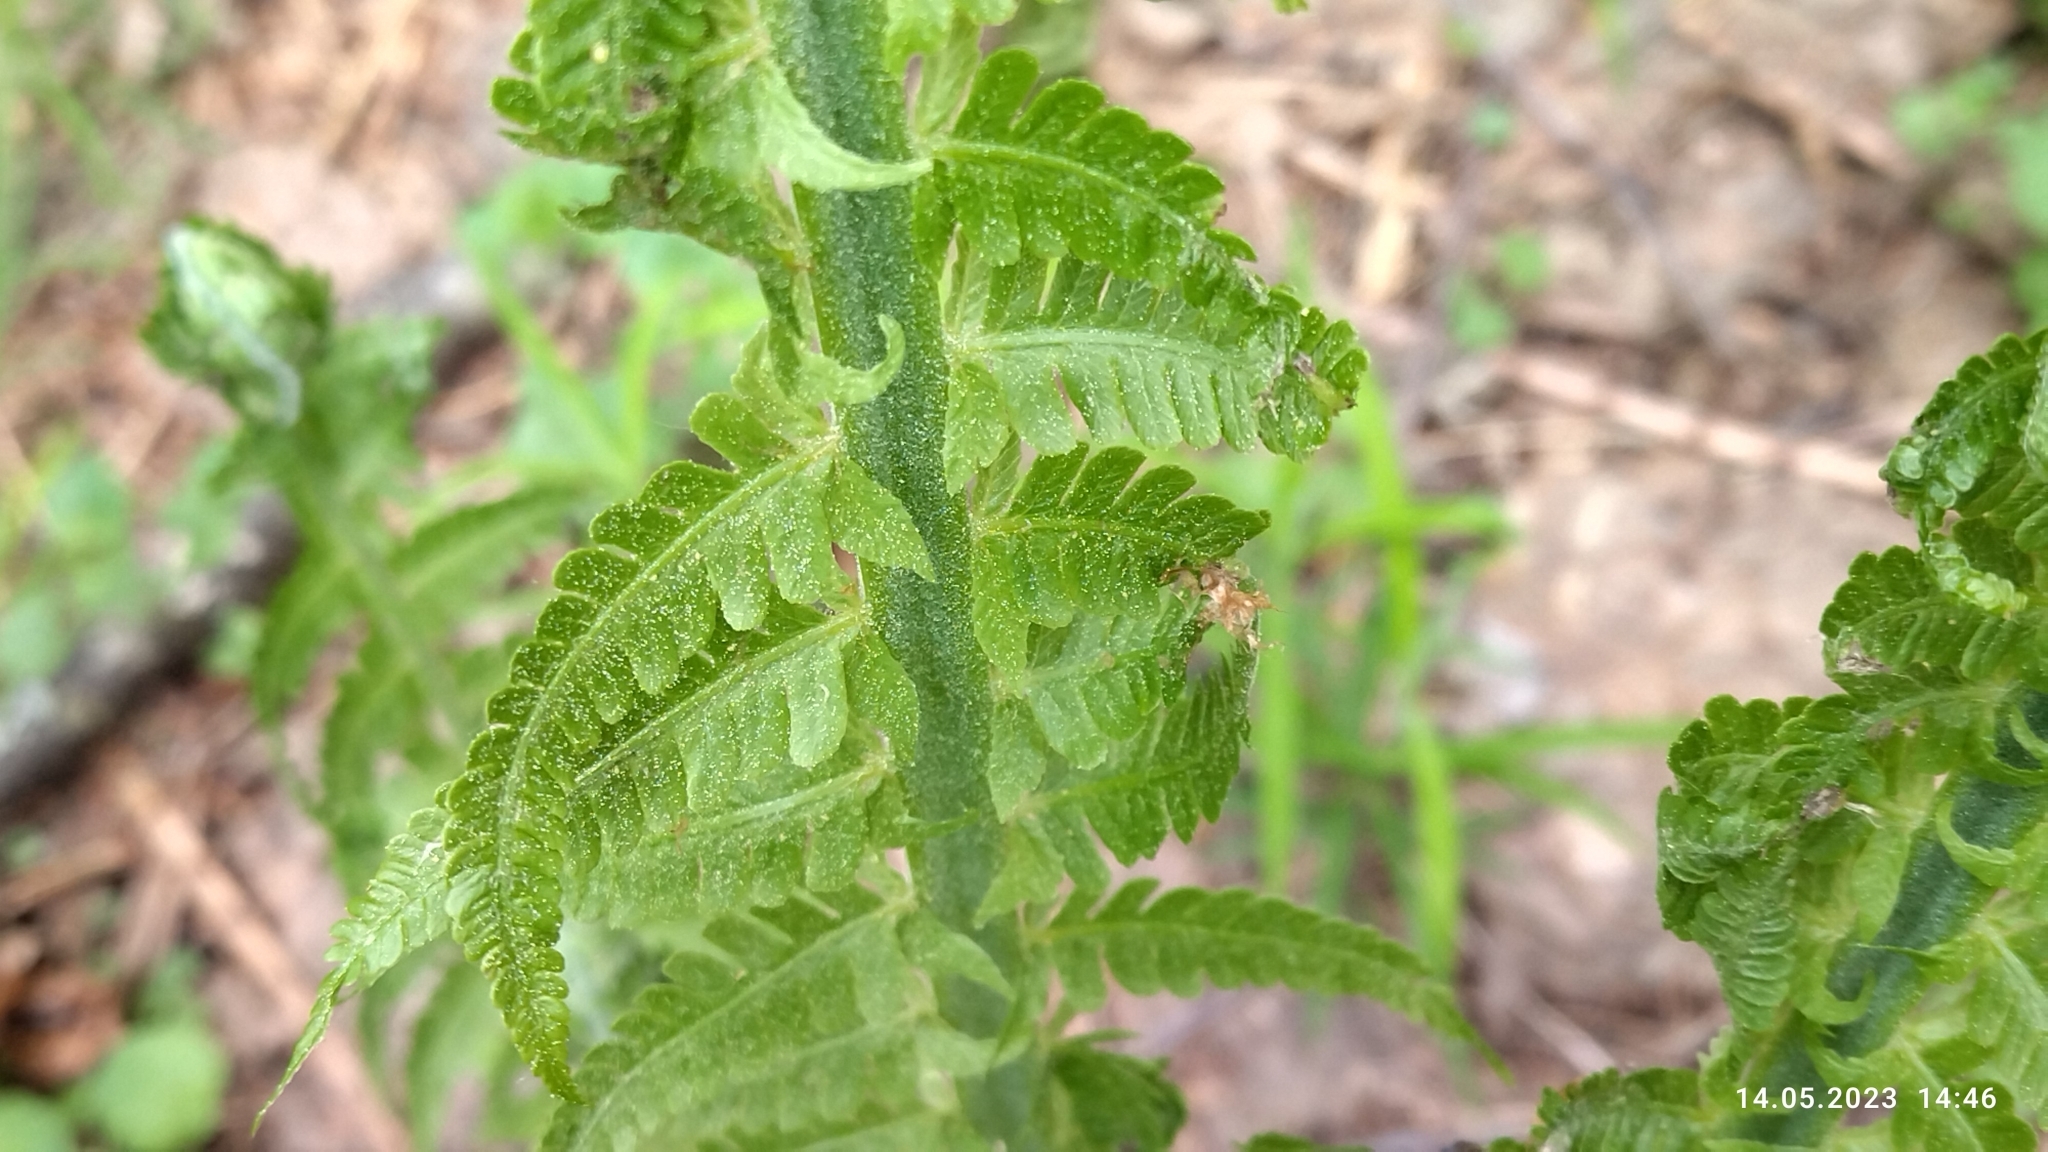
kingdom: Plantae
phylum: Tracheophyta
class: Polypodiopsida
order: Polypodiales
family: Onocleaceae
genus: Matteuccia
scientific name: Matteuccia struthiopteris
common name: Ostrich fern
